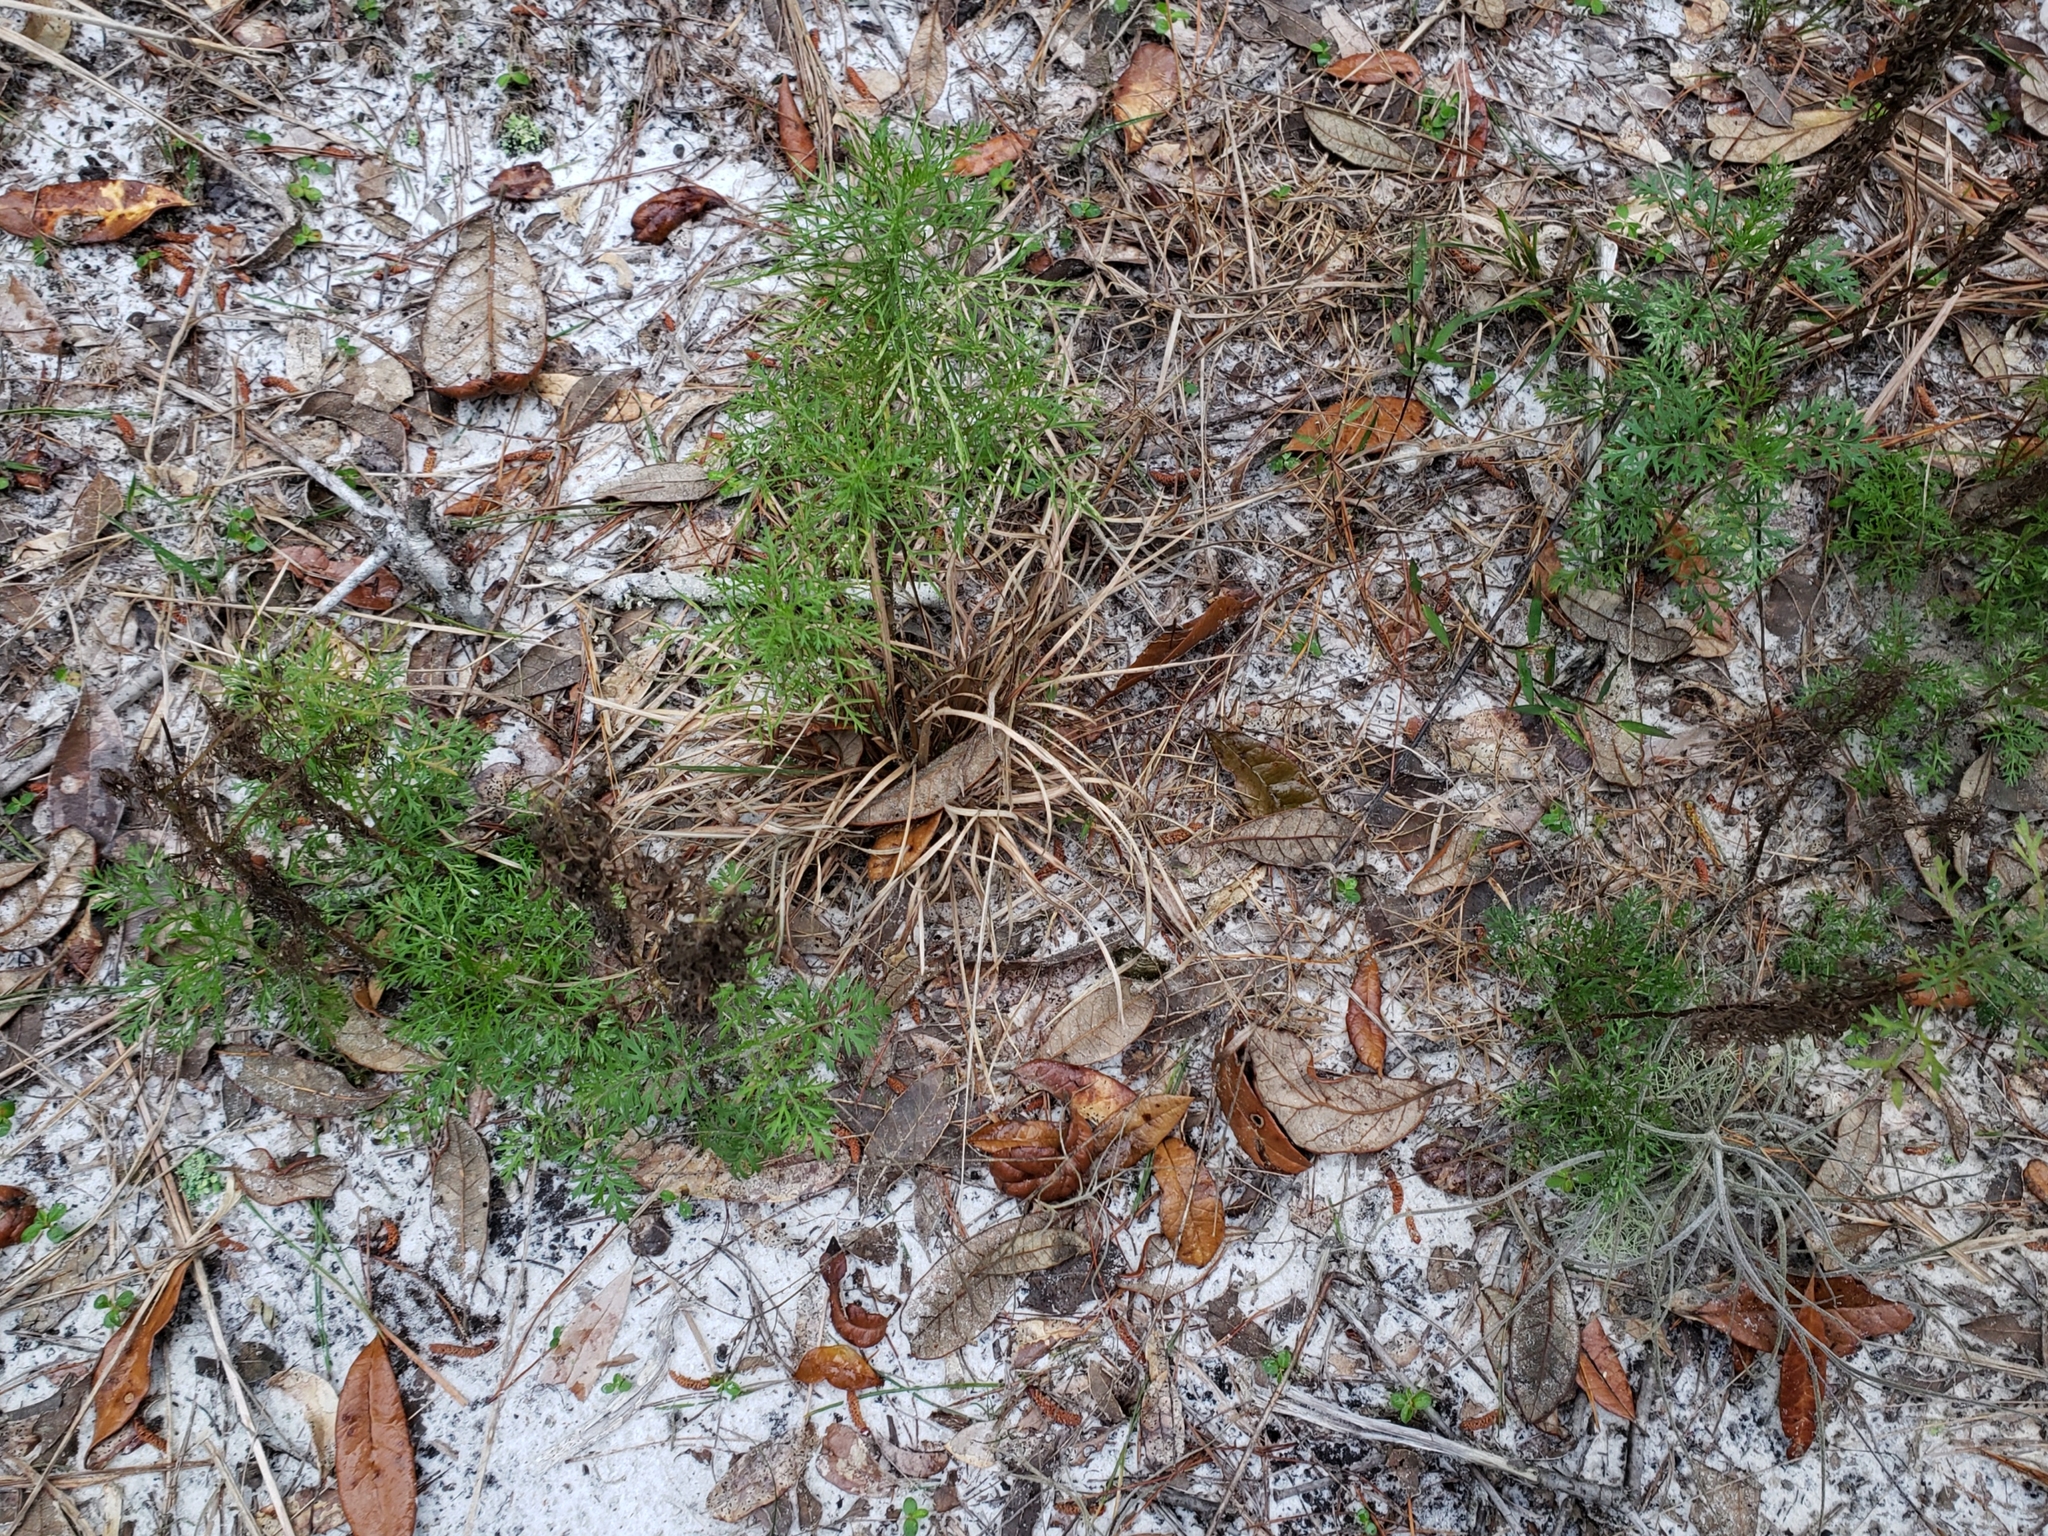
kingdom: Plantae
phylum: Tracheophyta
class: Magnoliopsida
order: Asterales
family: Asteraceae
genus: Eupatorium
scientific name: Eupatorium capillifolium
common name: Dog-fennel
